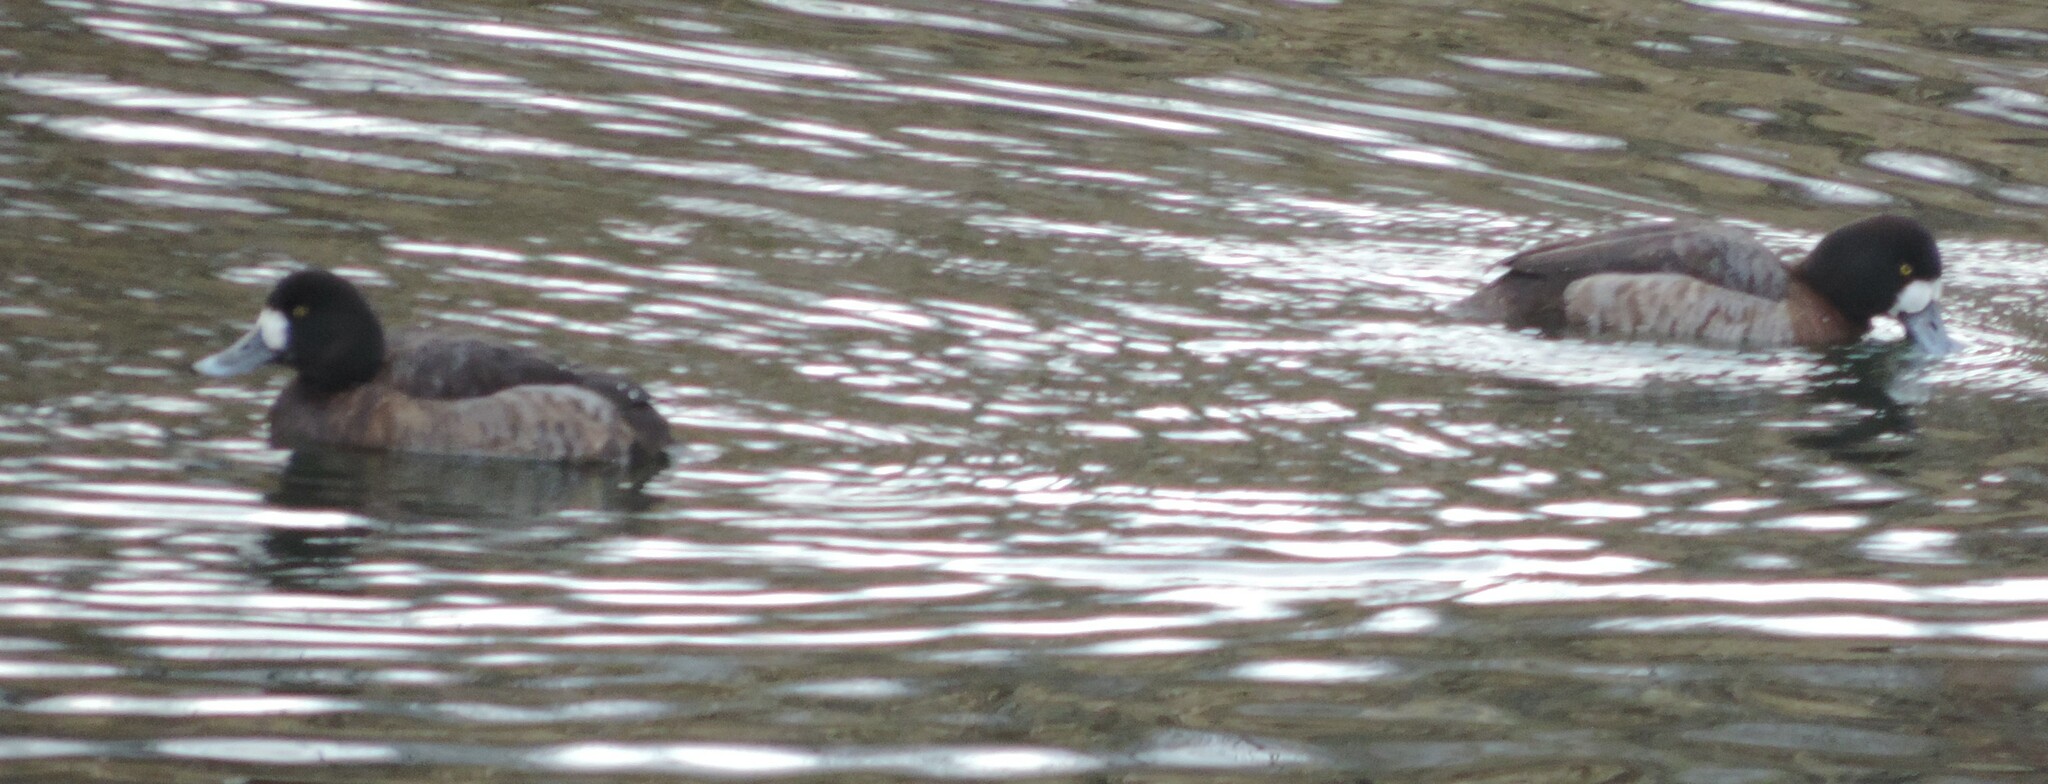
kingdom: Animalia
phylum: Chordata
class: Aves
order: Anseriformes
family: Anatidae
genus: Aythya
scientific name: Aythya marila
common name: Greater scaup
